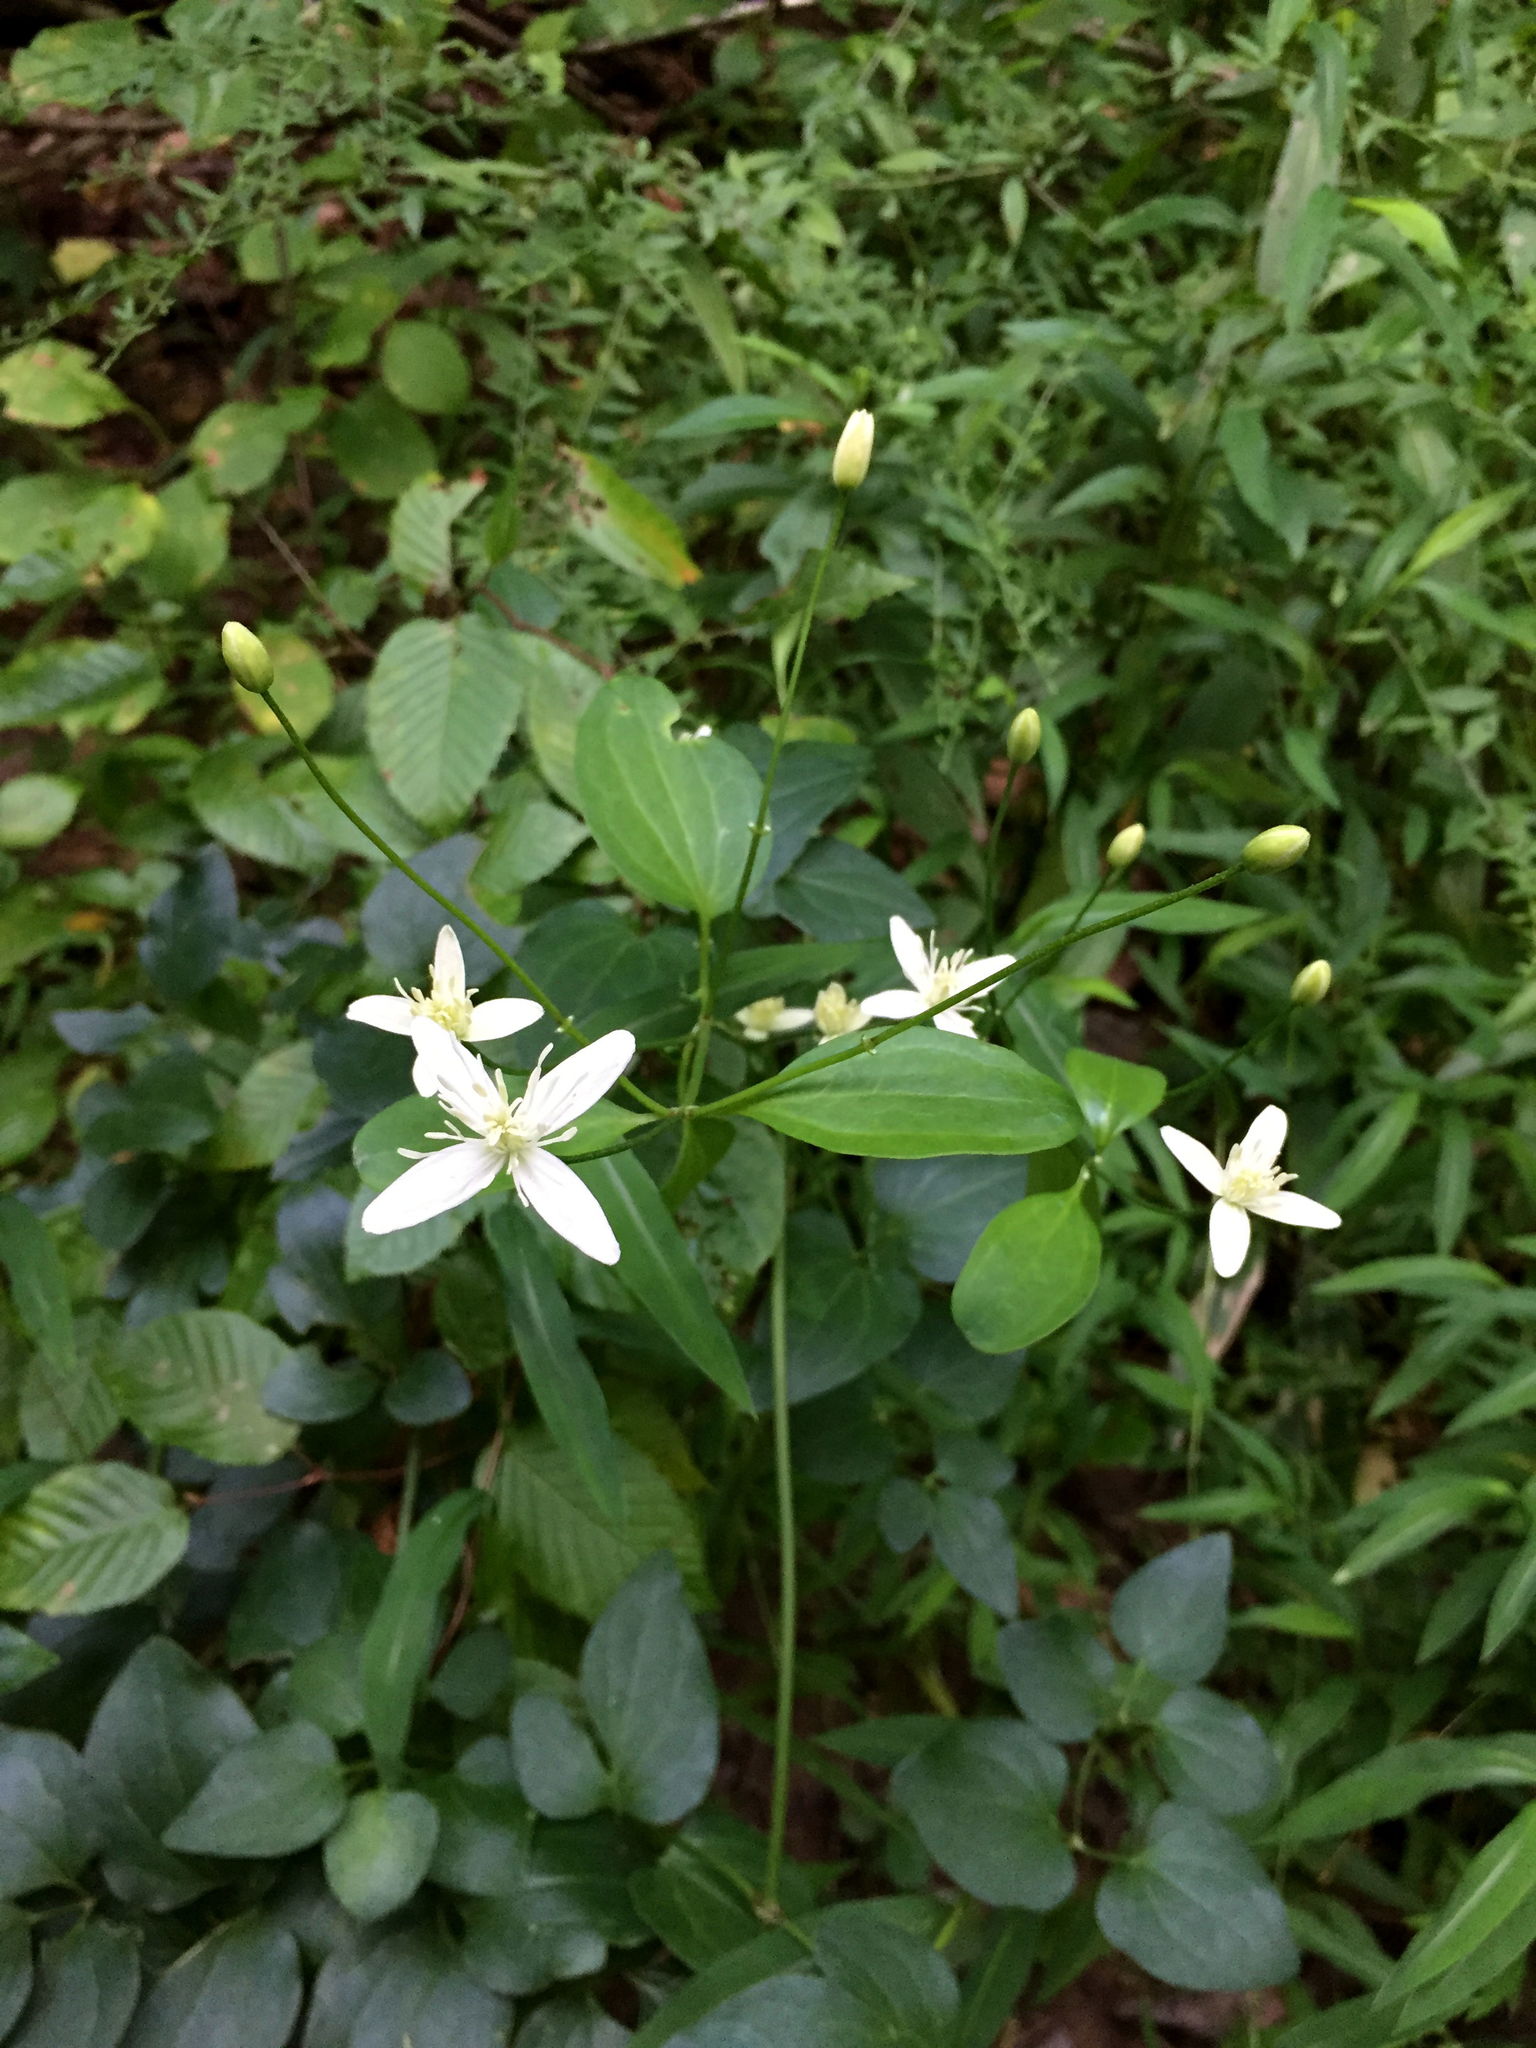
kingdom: Plantae
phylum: Tracheophyta
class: Magnoliopsida
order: Ranunculales
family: Ranunculaceae
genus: Clematis
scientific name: Clematis terniflora
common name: Sweet autumn clematis
